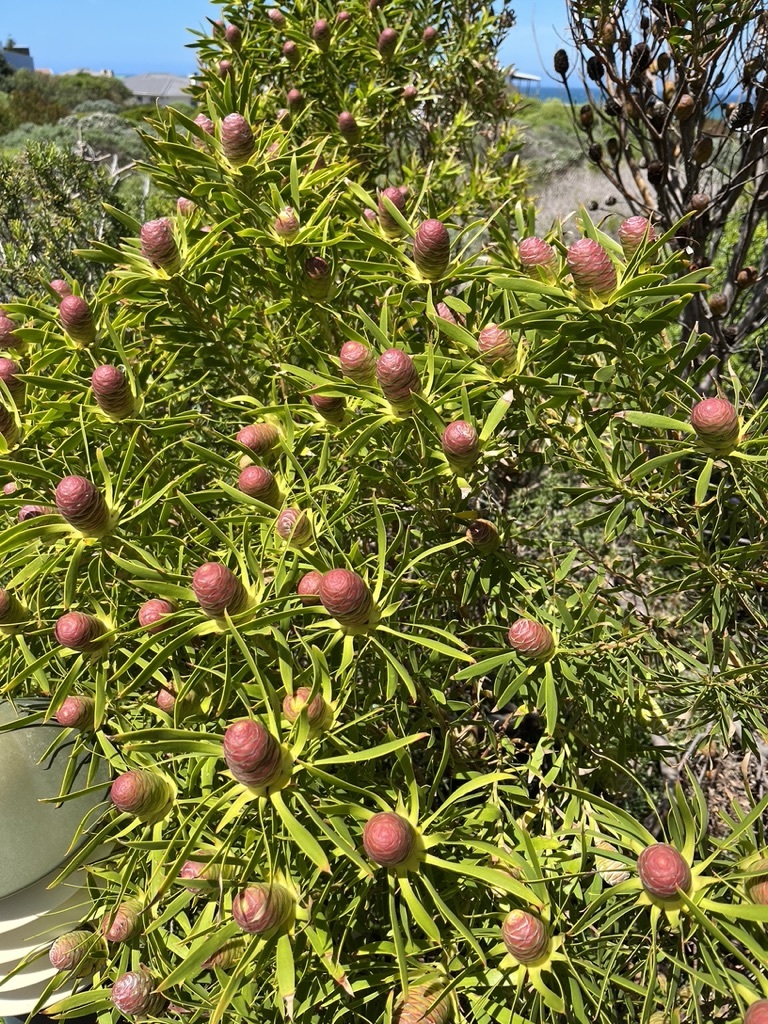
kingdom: Plantae
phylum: Tracheophyta
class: Magnoliopsida
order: Proteales
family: Proteaceae
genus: Leucadendron
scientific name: Leucadendron coniferum
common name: Dune conebush
